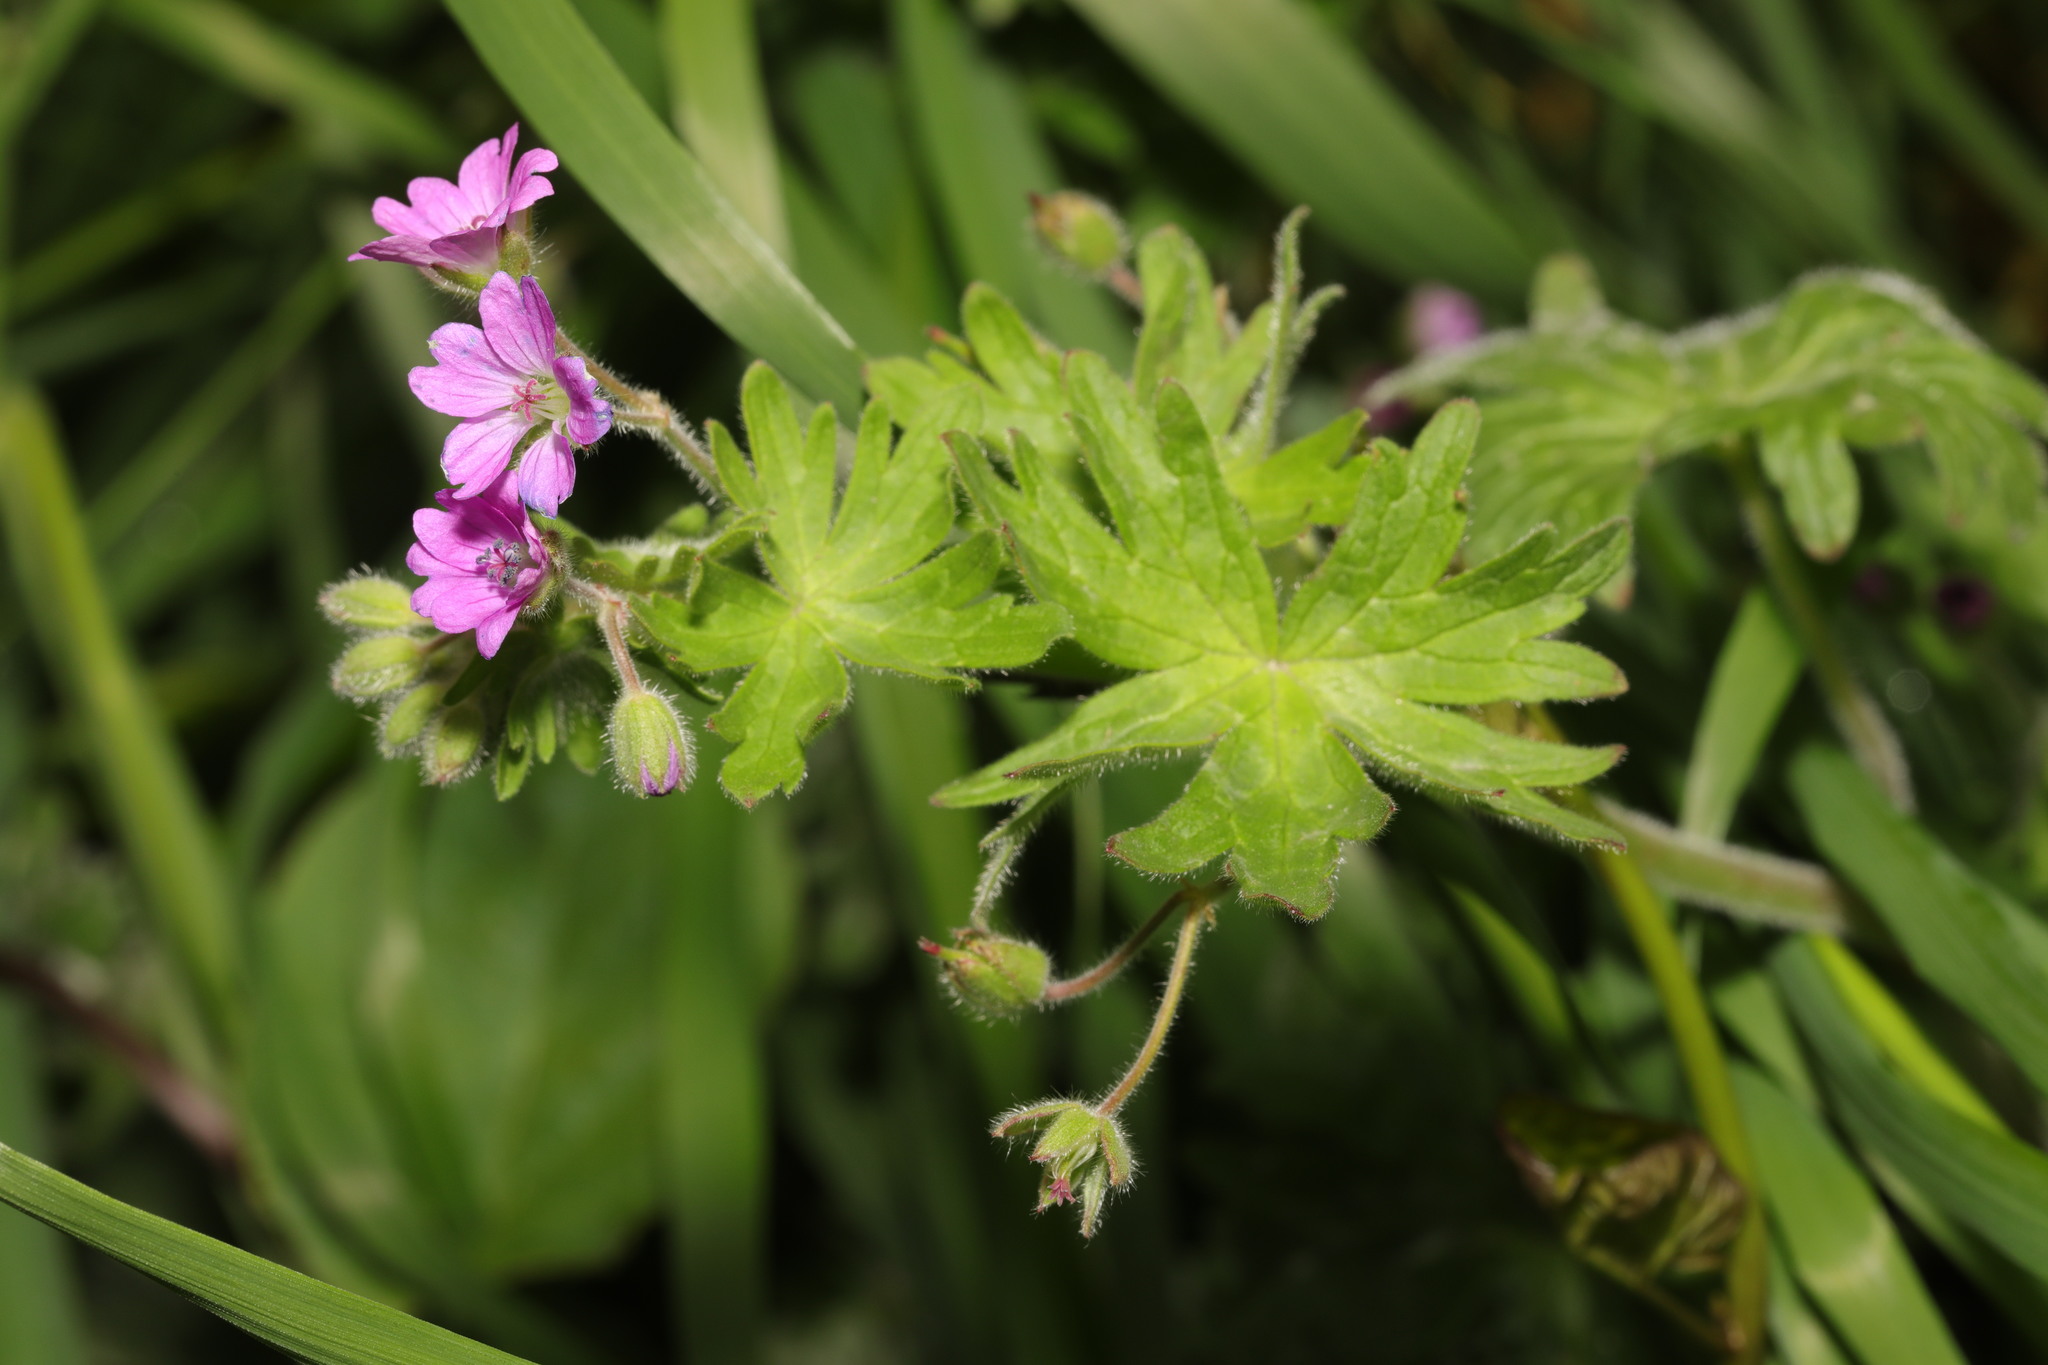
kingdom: Plantae
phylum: Tracheophyta
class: Magnoliopsida
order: Geraniales
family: Geraniaceae
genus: Geranium
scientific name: Geranium molle
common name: Dove's-foot crane's-bill
